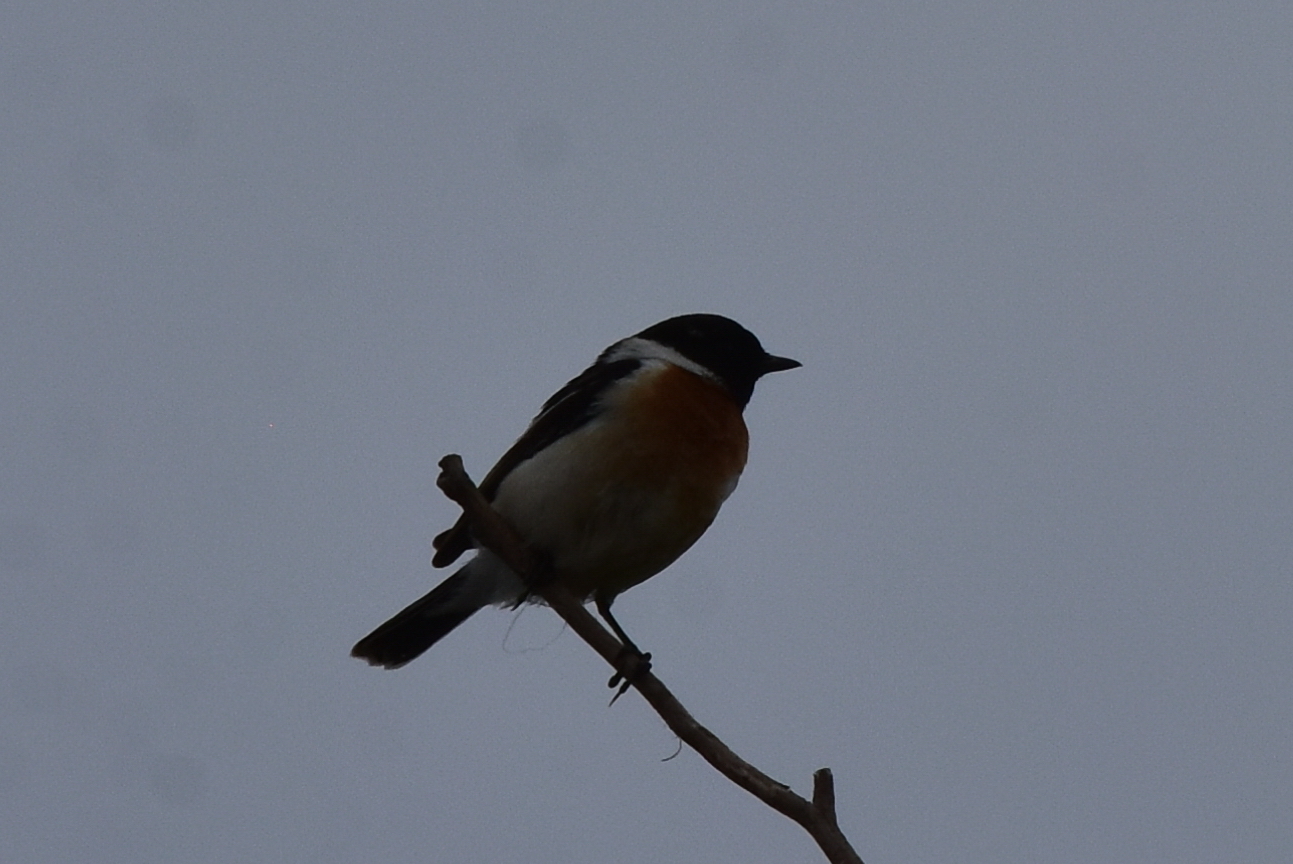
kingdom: Animalia
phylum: Chordata
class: Aves
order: Passeriformes
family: Muscicapidae
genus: Saxicola
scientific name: Saxicola maurus
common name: Siberian stonechat
